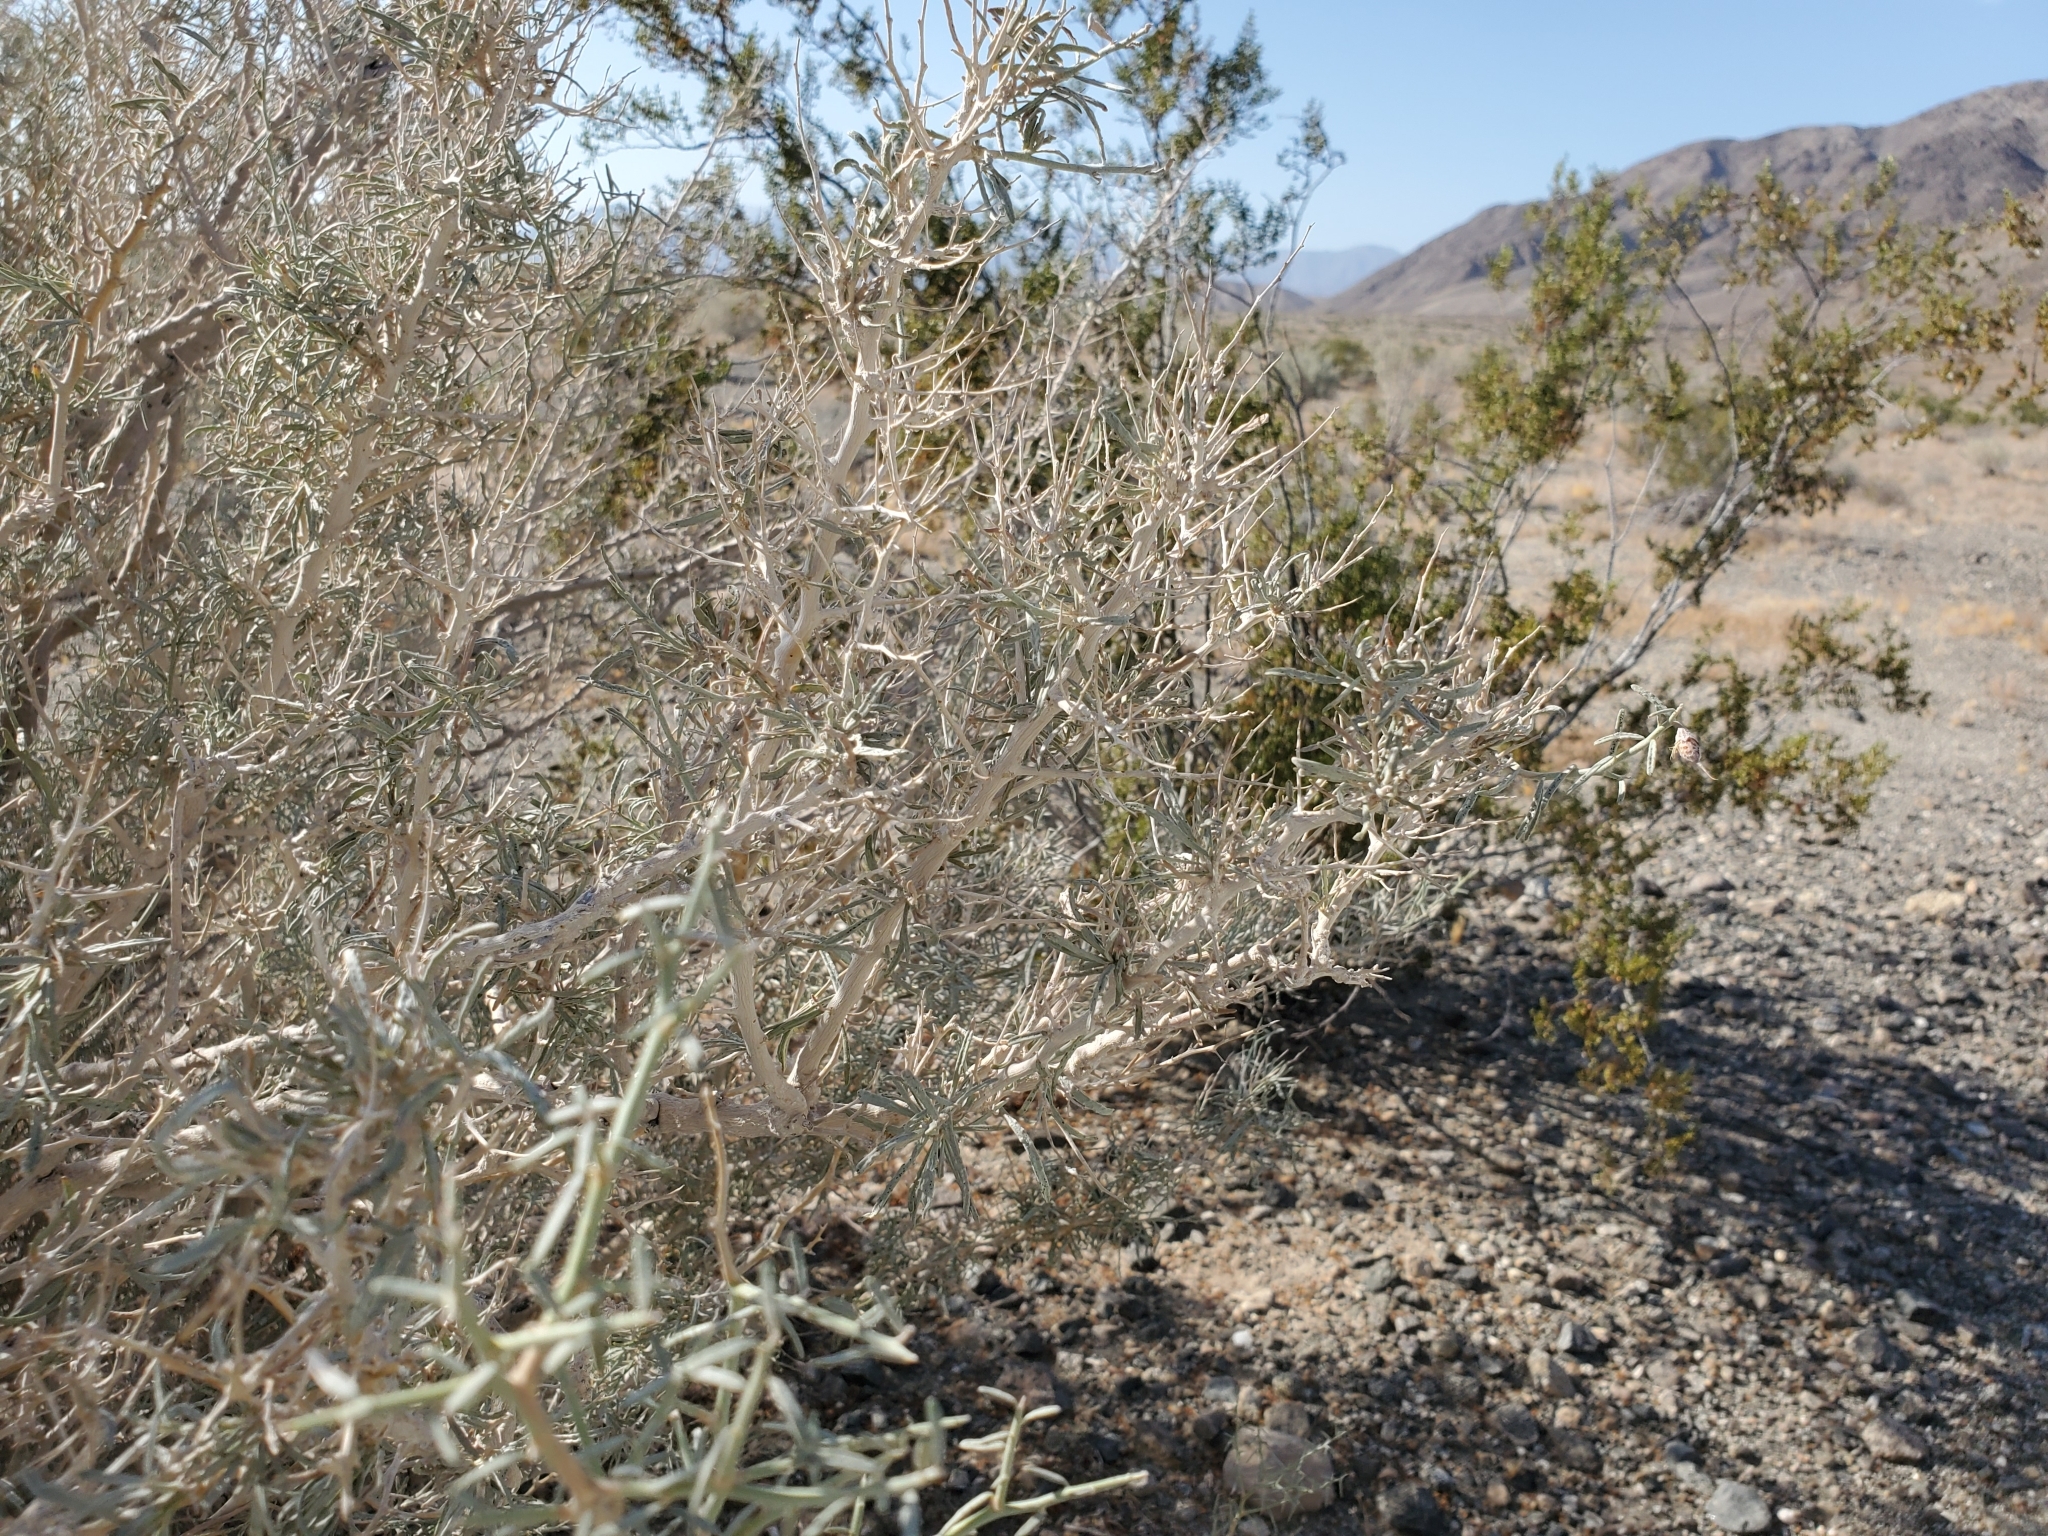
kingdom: Plantae
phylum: Tracheophyta
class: Magnoliopsida
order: Fabales
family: Fabaceae
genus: Psorothamnus
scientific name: Psorothamnus schottii
